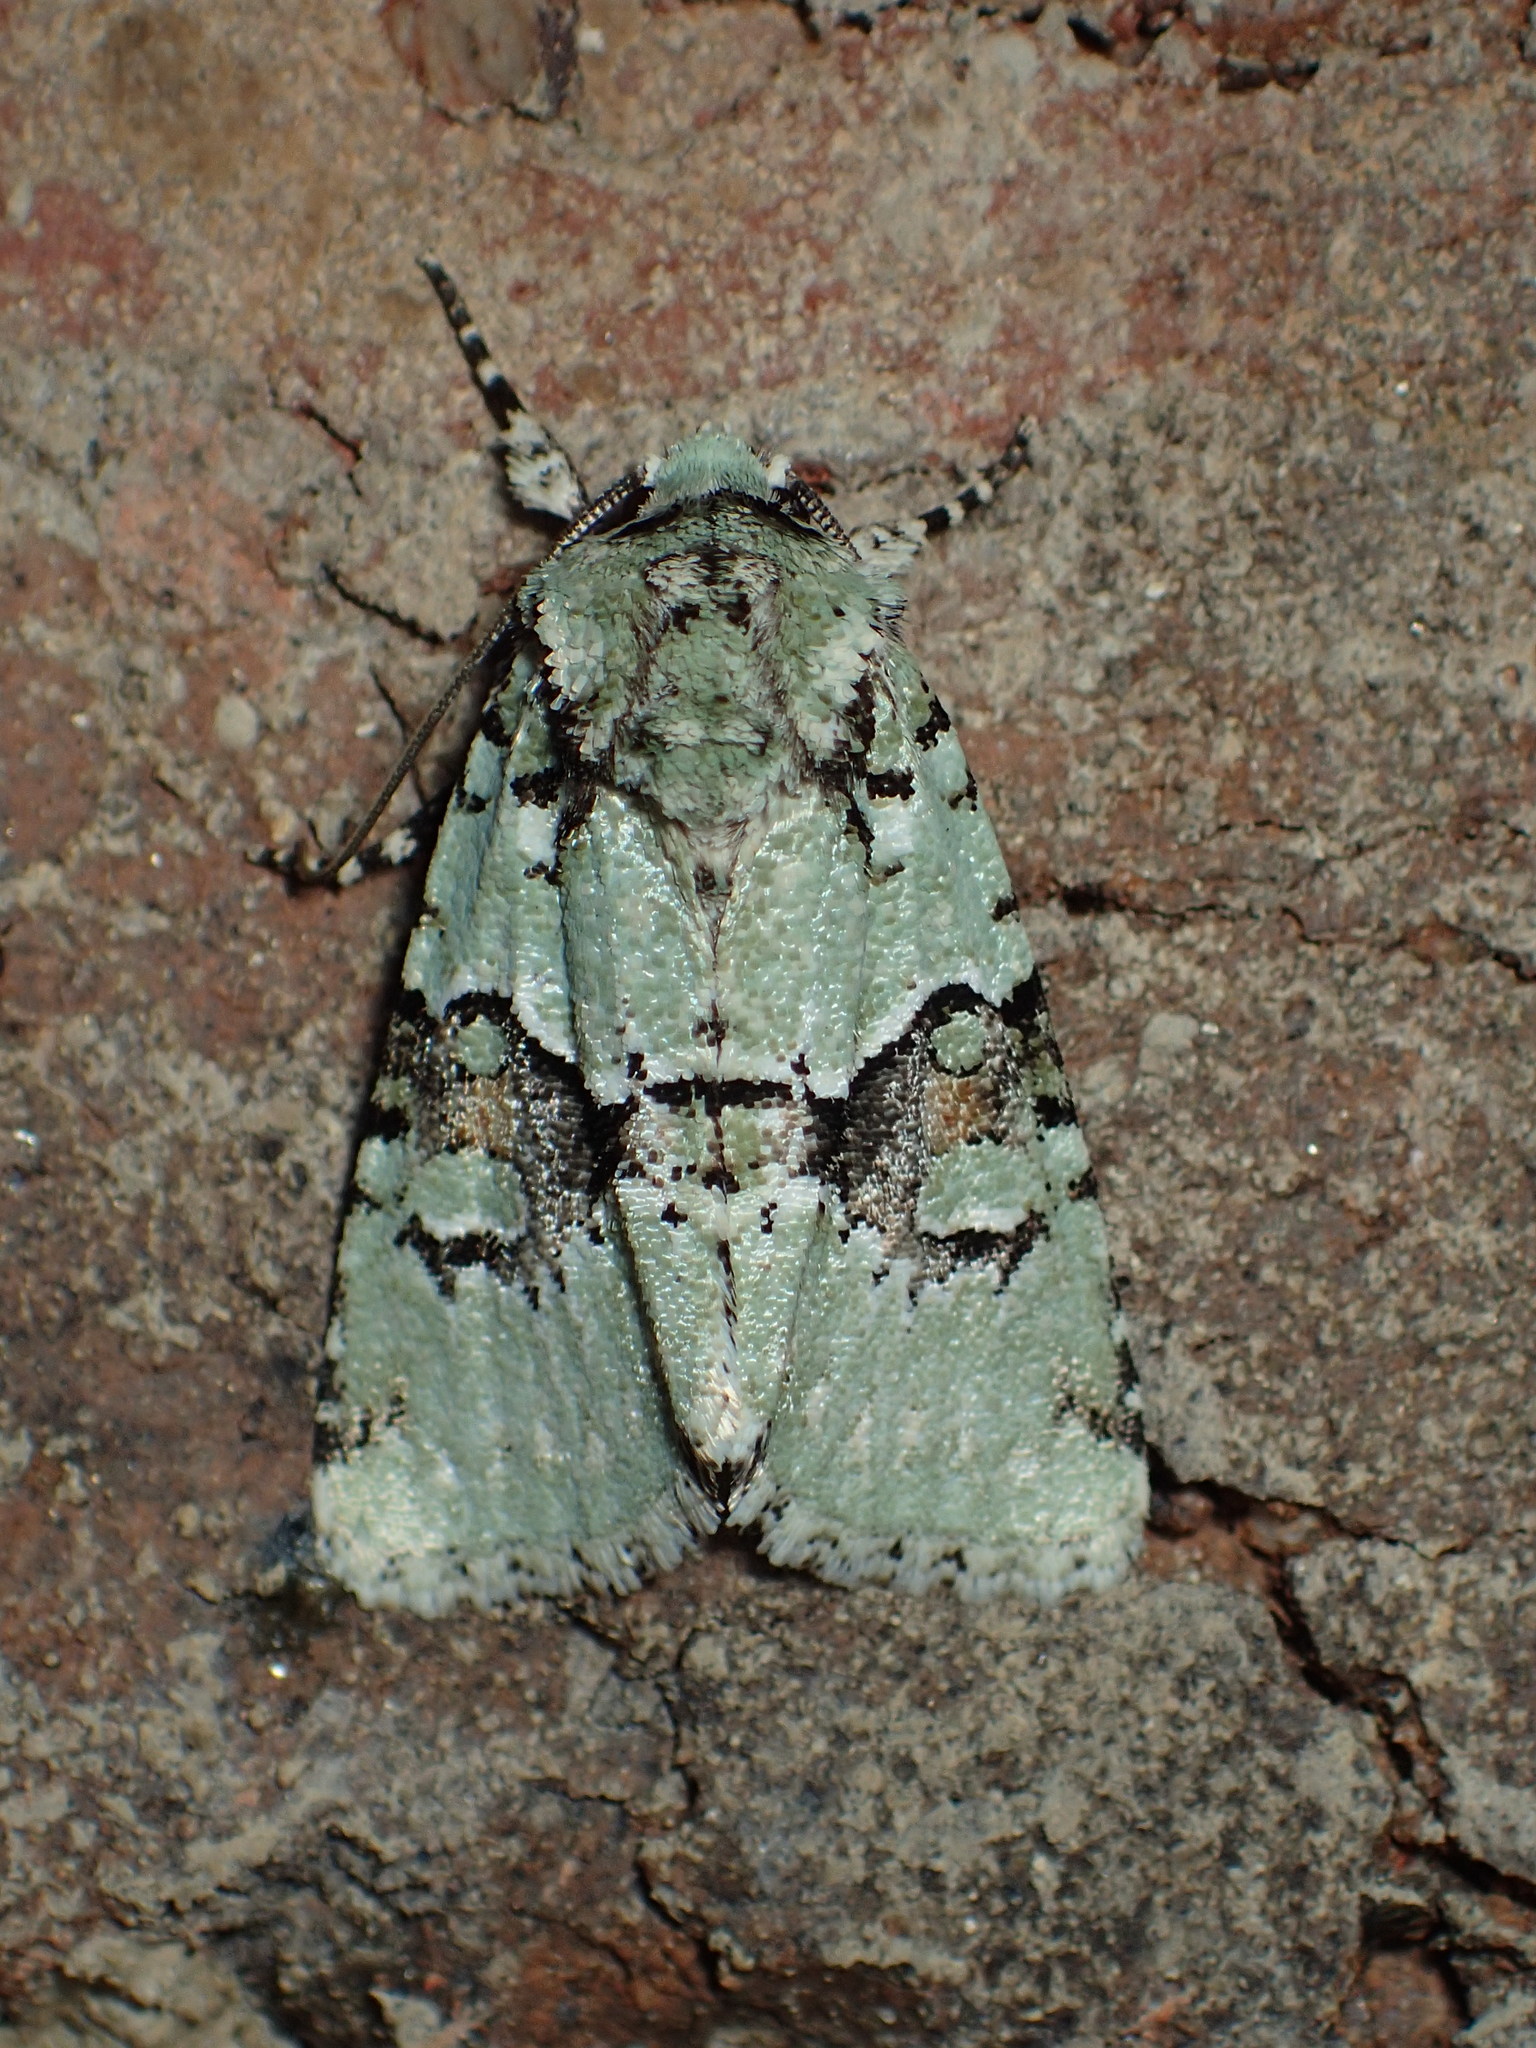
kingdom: Animalia
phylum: Arthropoda
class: Insecta
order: Lepidoptera
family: Noctuidae
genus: Lacinipolia
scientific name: Lacinipolia laudabilis
